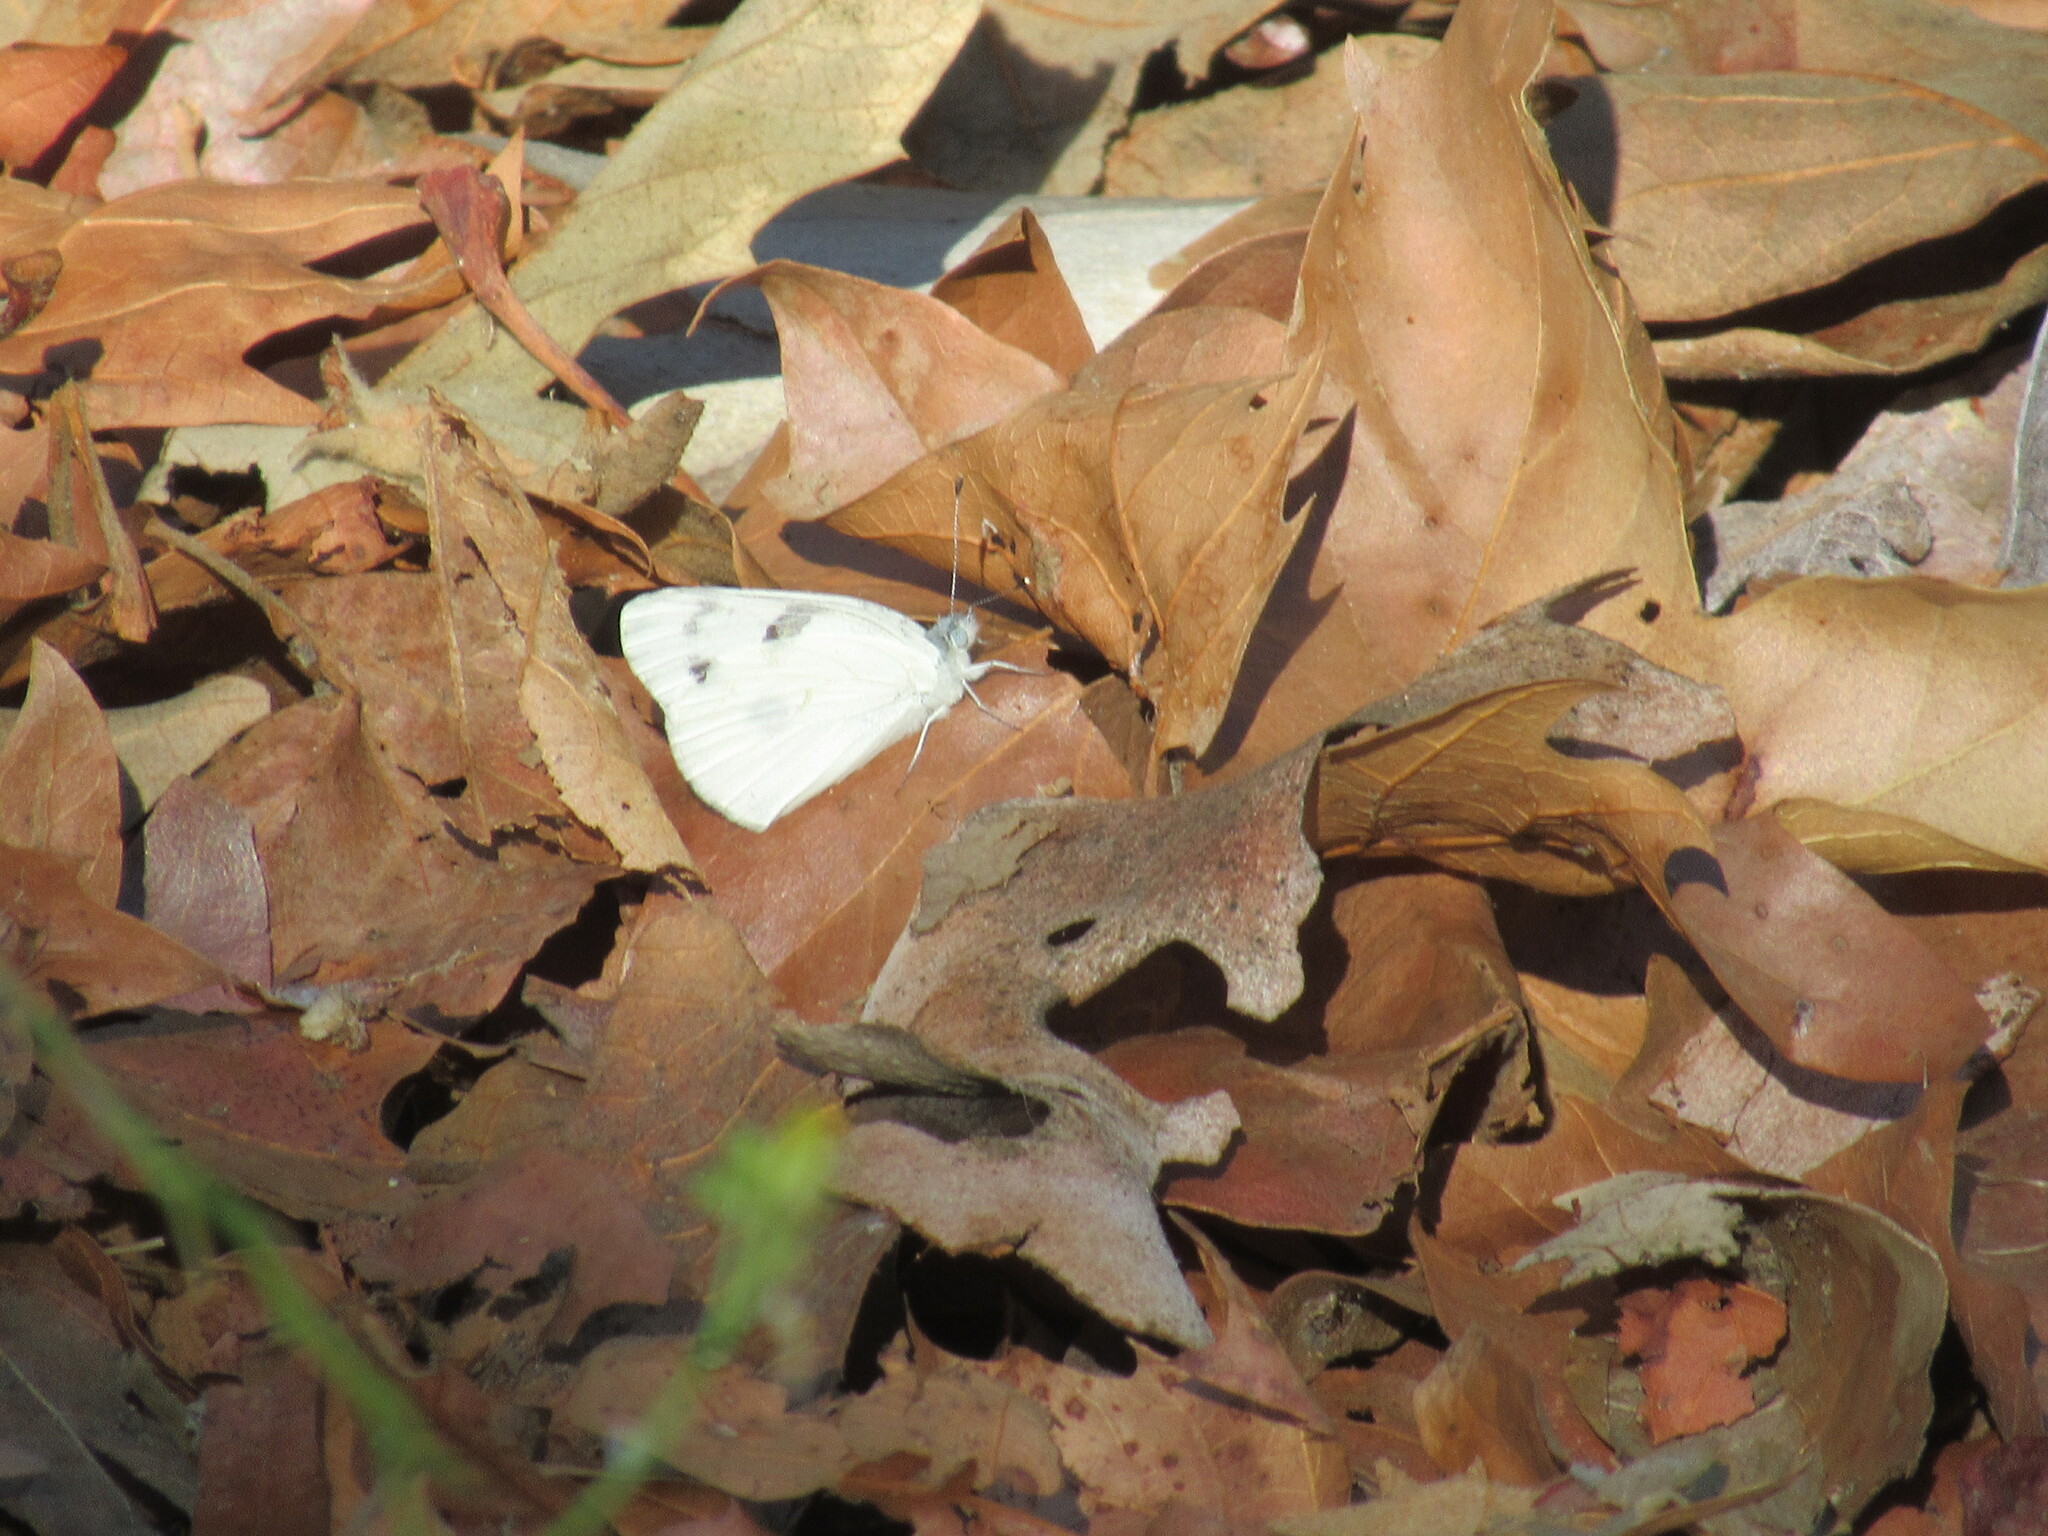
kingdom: Animalia
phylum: Arthropoda
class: Insecta
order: Lepidoptera
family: Pieridae
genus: Pieris
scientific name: Pieris rapae
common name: Small white
